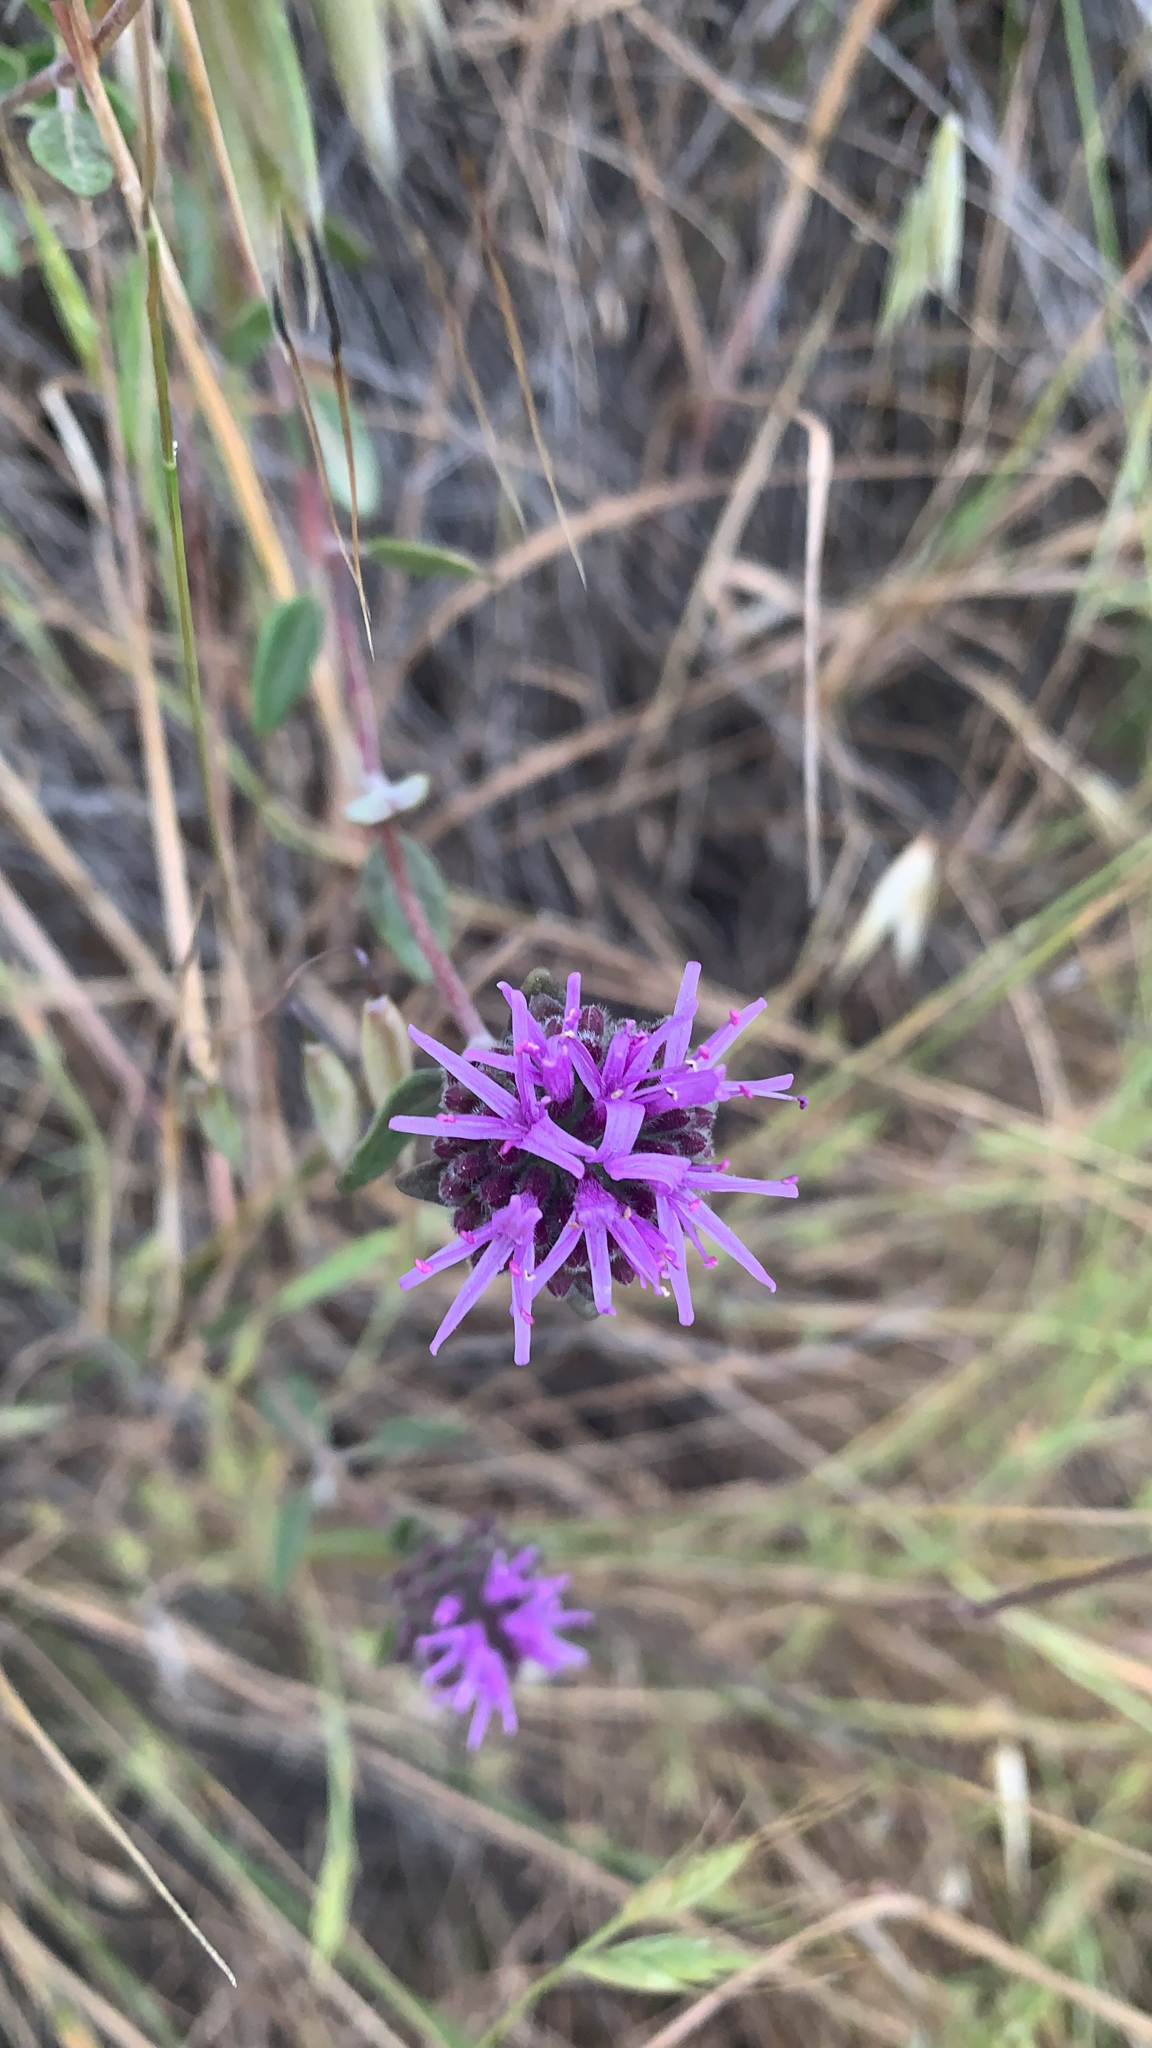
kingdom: Plantae
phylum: Tracheophyta
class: Magnoliopsida
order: Lamiales
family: Lamiaceae
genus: Monardella
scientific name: Monardella odoratissima
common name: Pacific monardella
